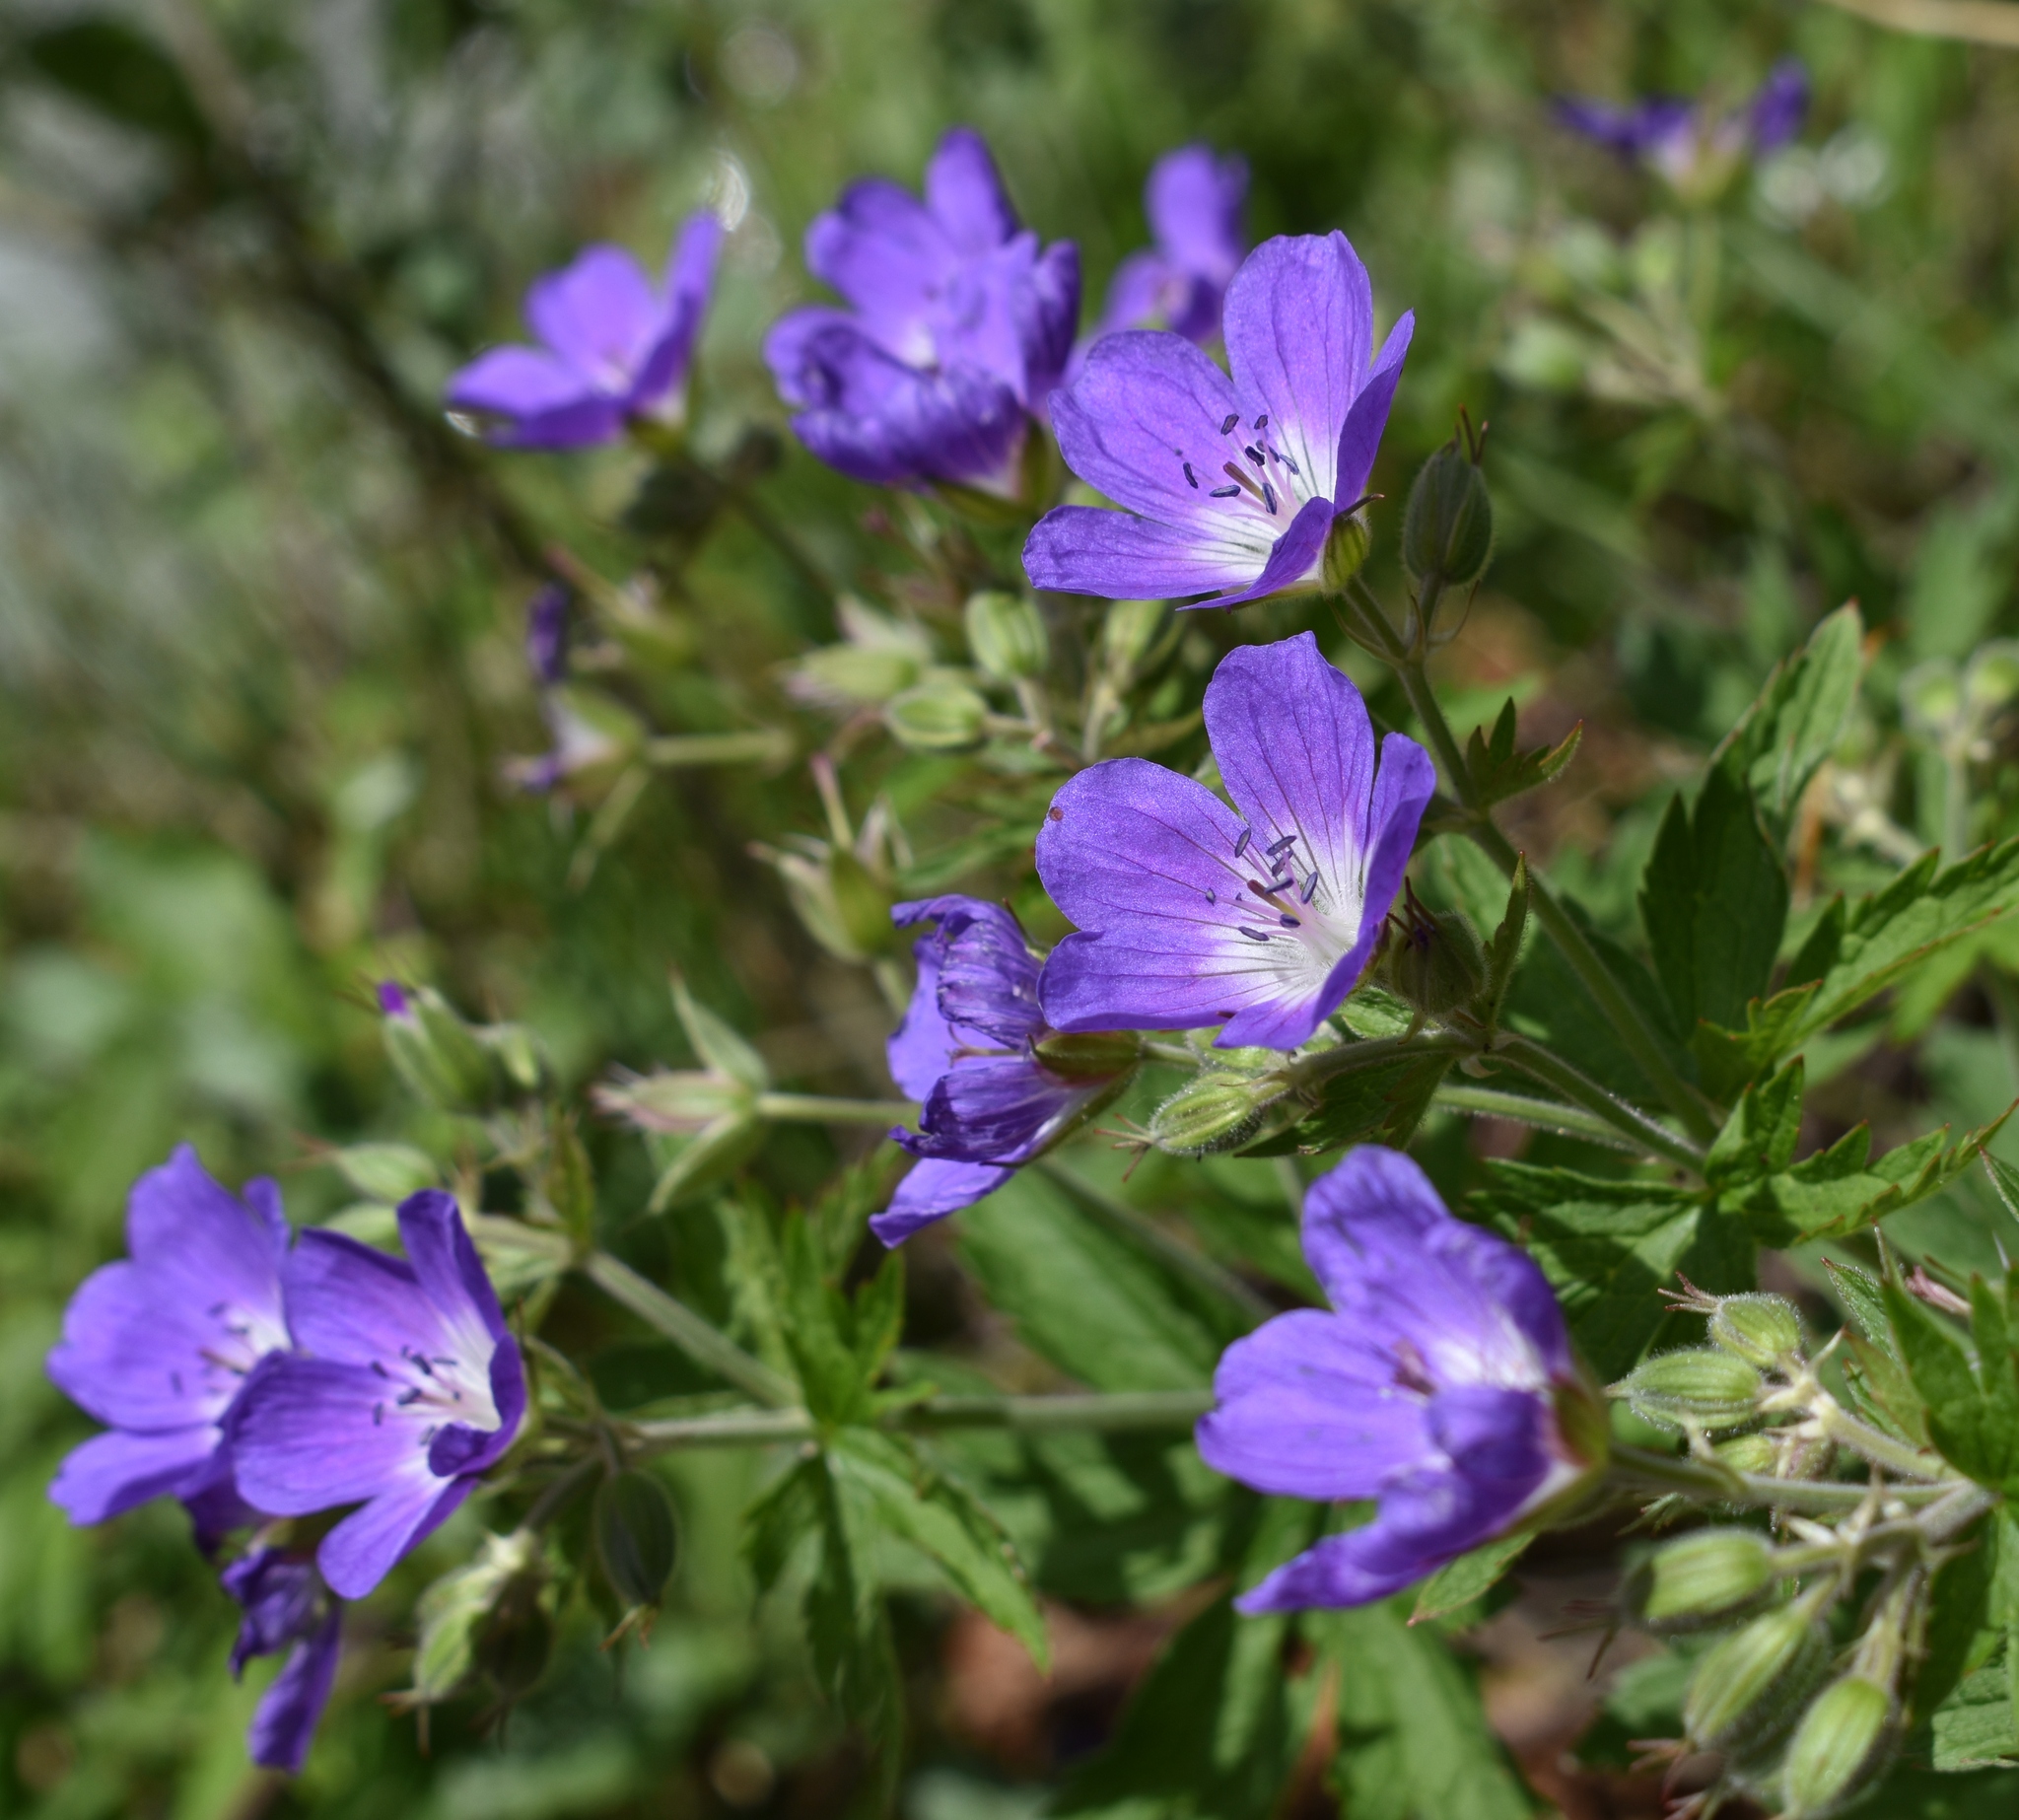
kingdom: Plantae
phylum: Tracheophyta
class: Magnoliopsida
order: Geraniales
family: Geraniaceae
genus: Geranium
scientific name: Geranium sylvaticum
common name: Wood crane's-bill
